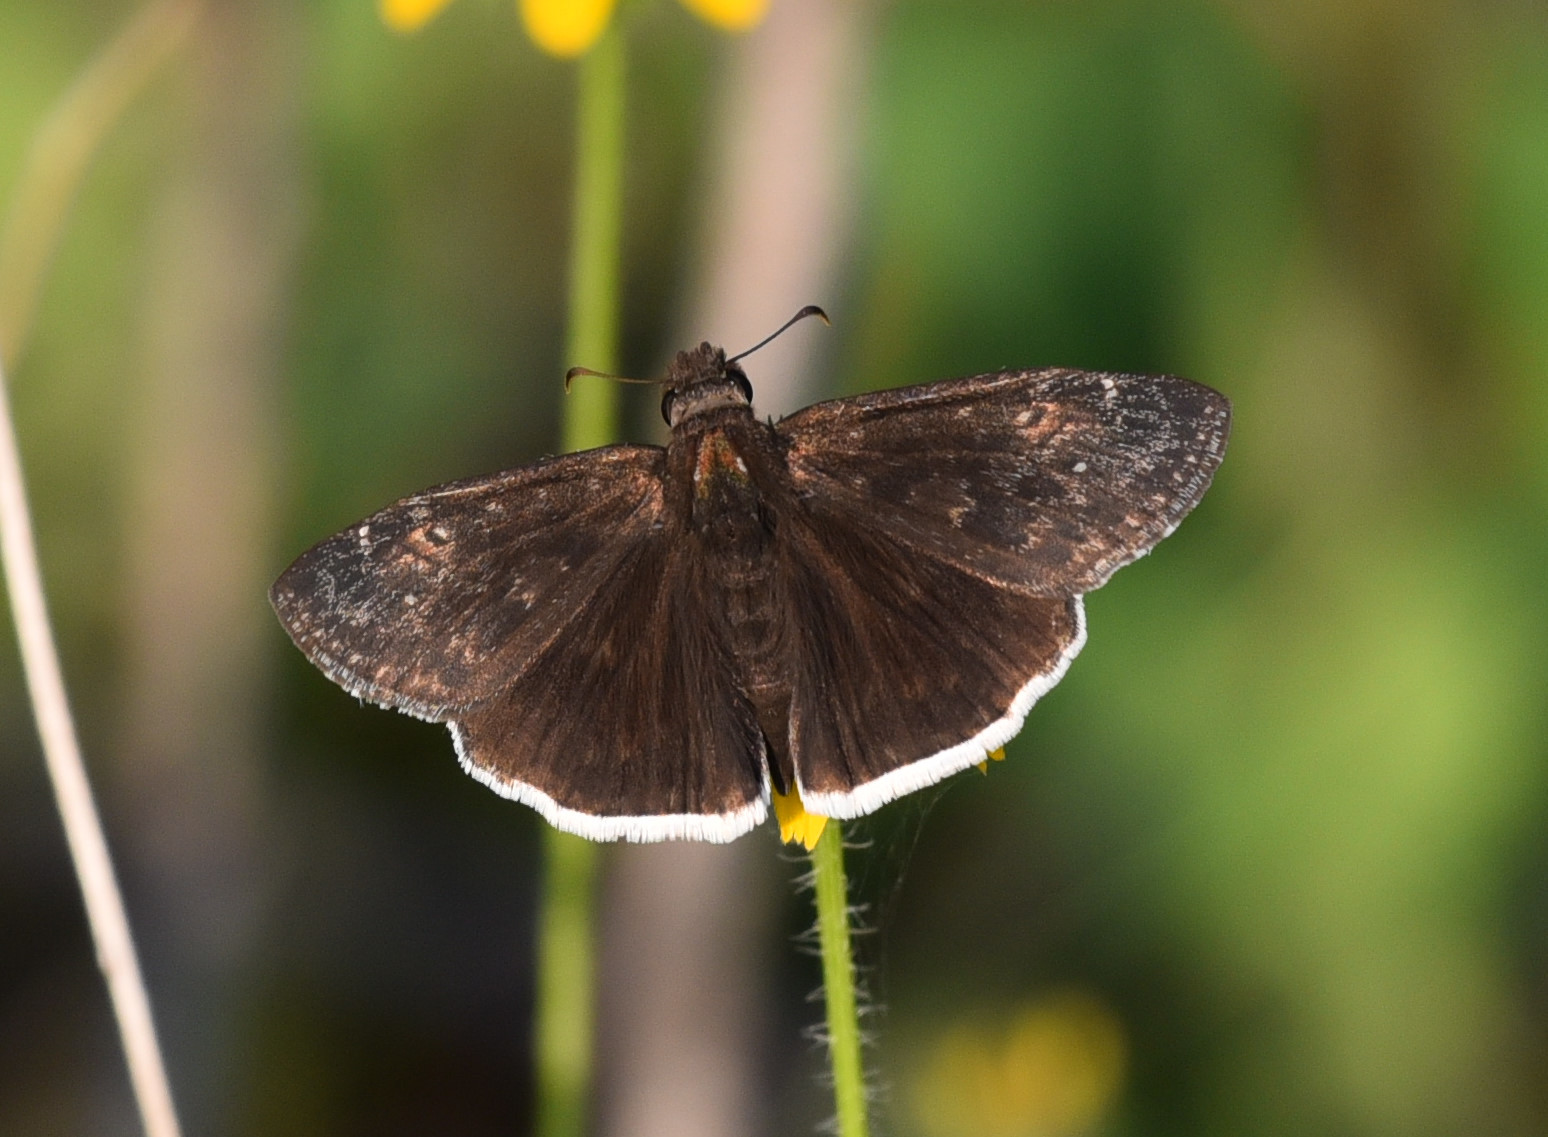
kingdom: Animalia
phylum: Arthropoda
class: Insecta
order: Lepidoptera
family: Hesperiidae
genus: Erynnis
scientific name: Erynnis funeralis
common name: Funereal duskywing
